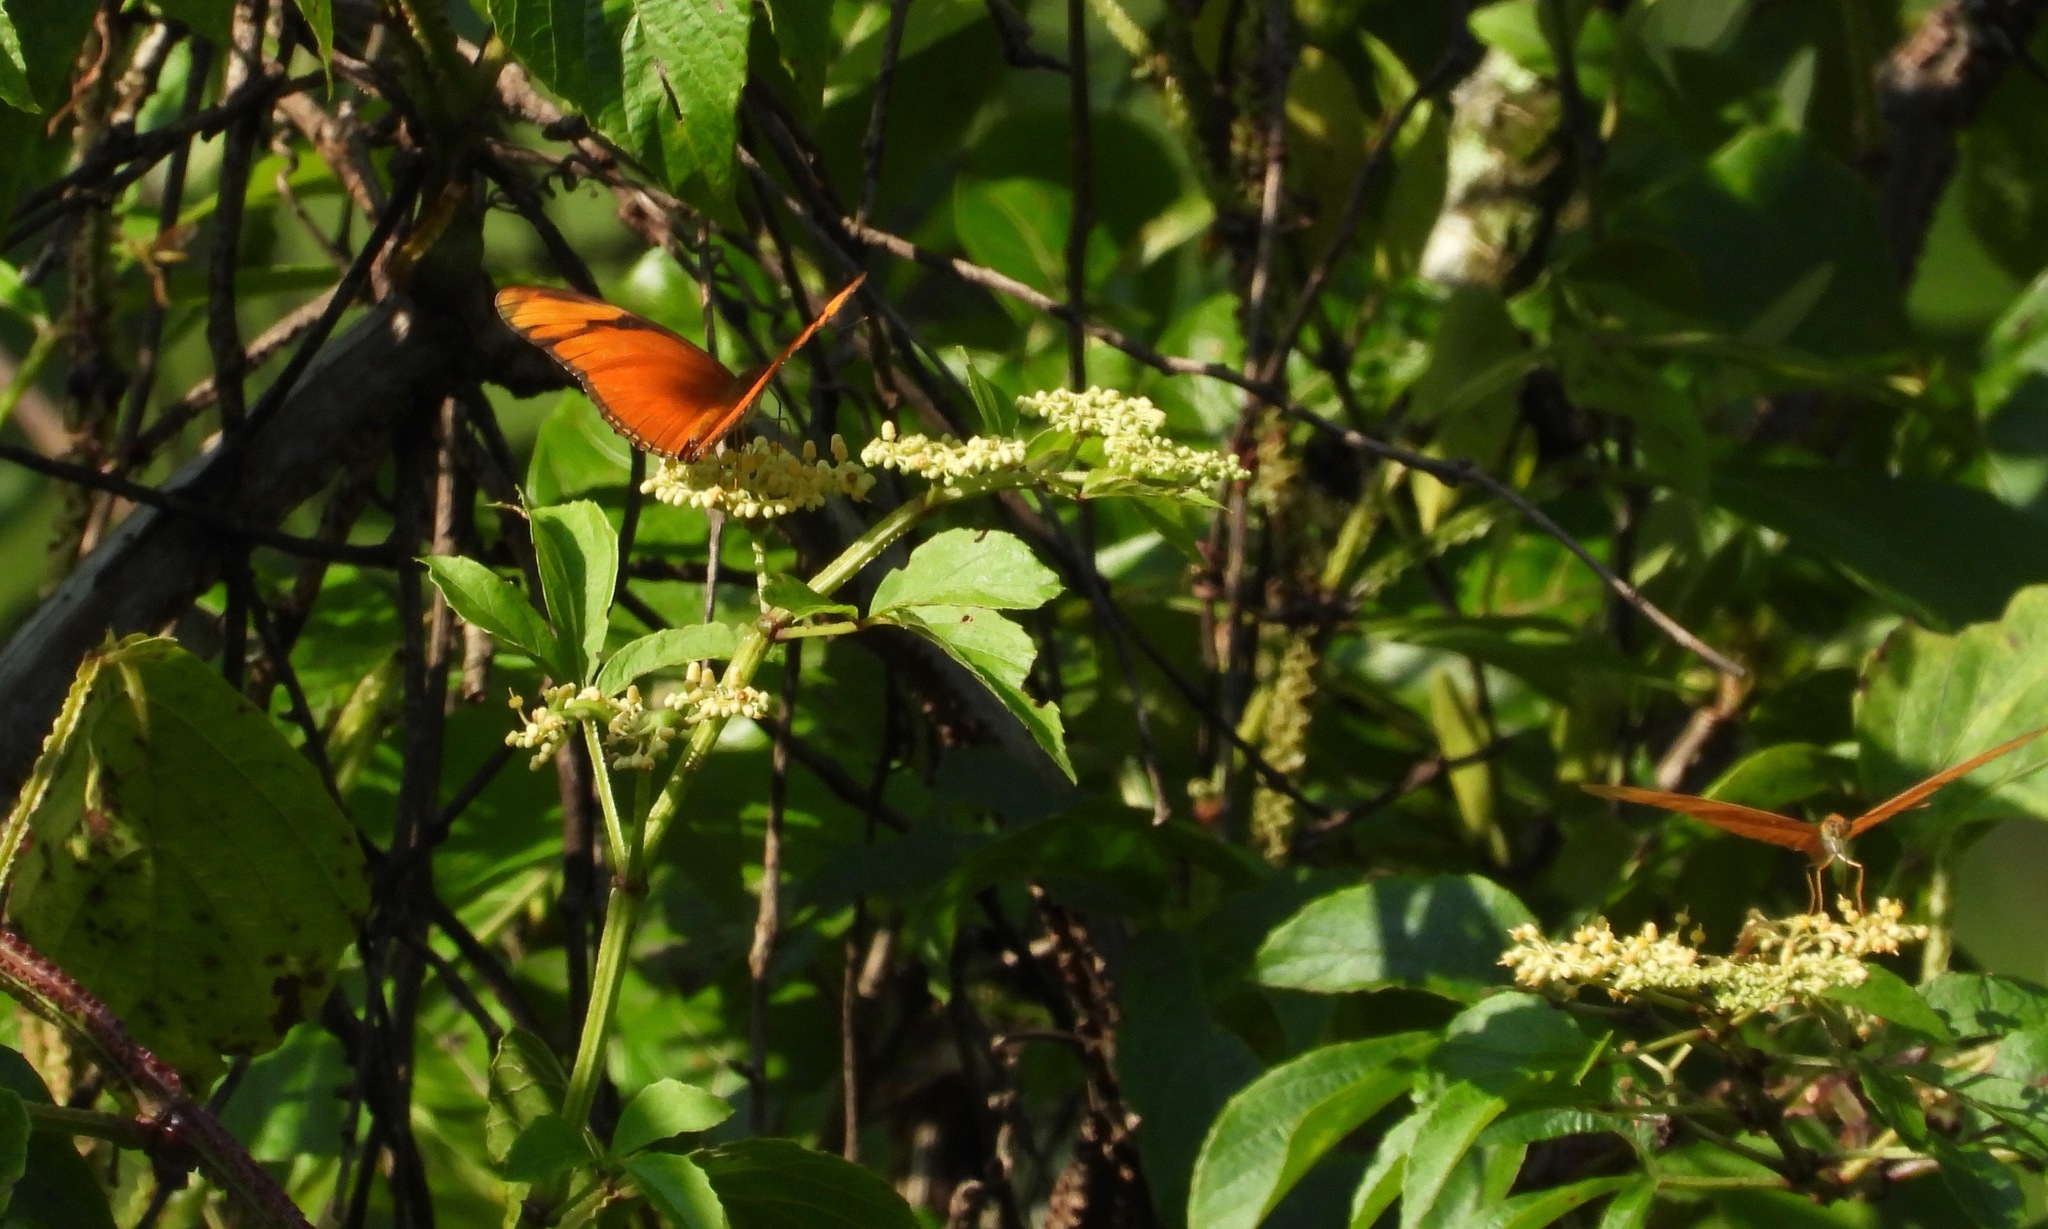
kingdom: Animalia
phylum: Arthropoda
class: Insecta
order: Lepidoptera
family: Nymphalidae
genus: Heliconius
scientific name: Heliconius aliphera
